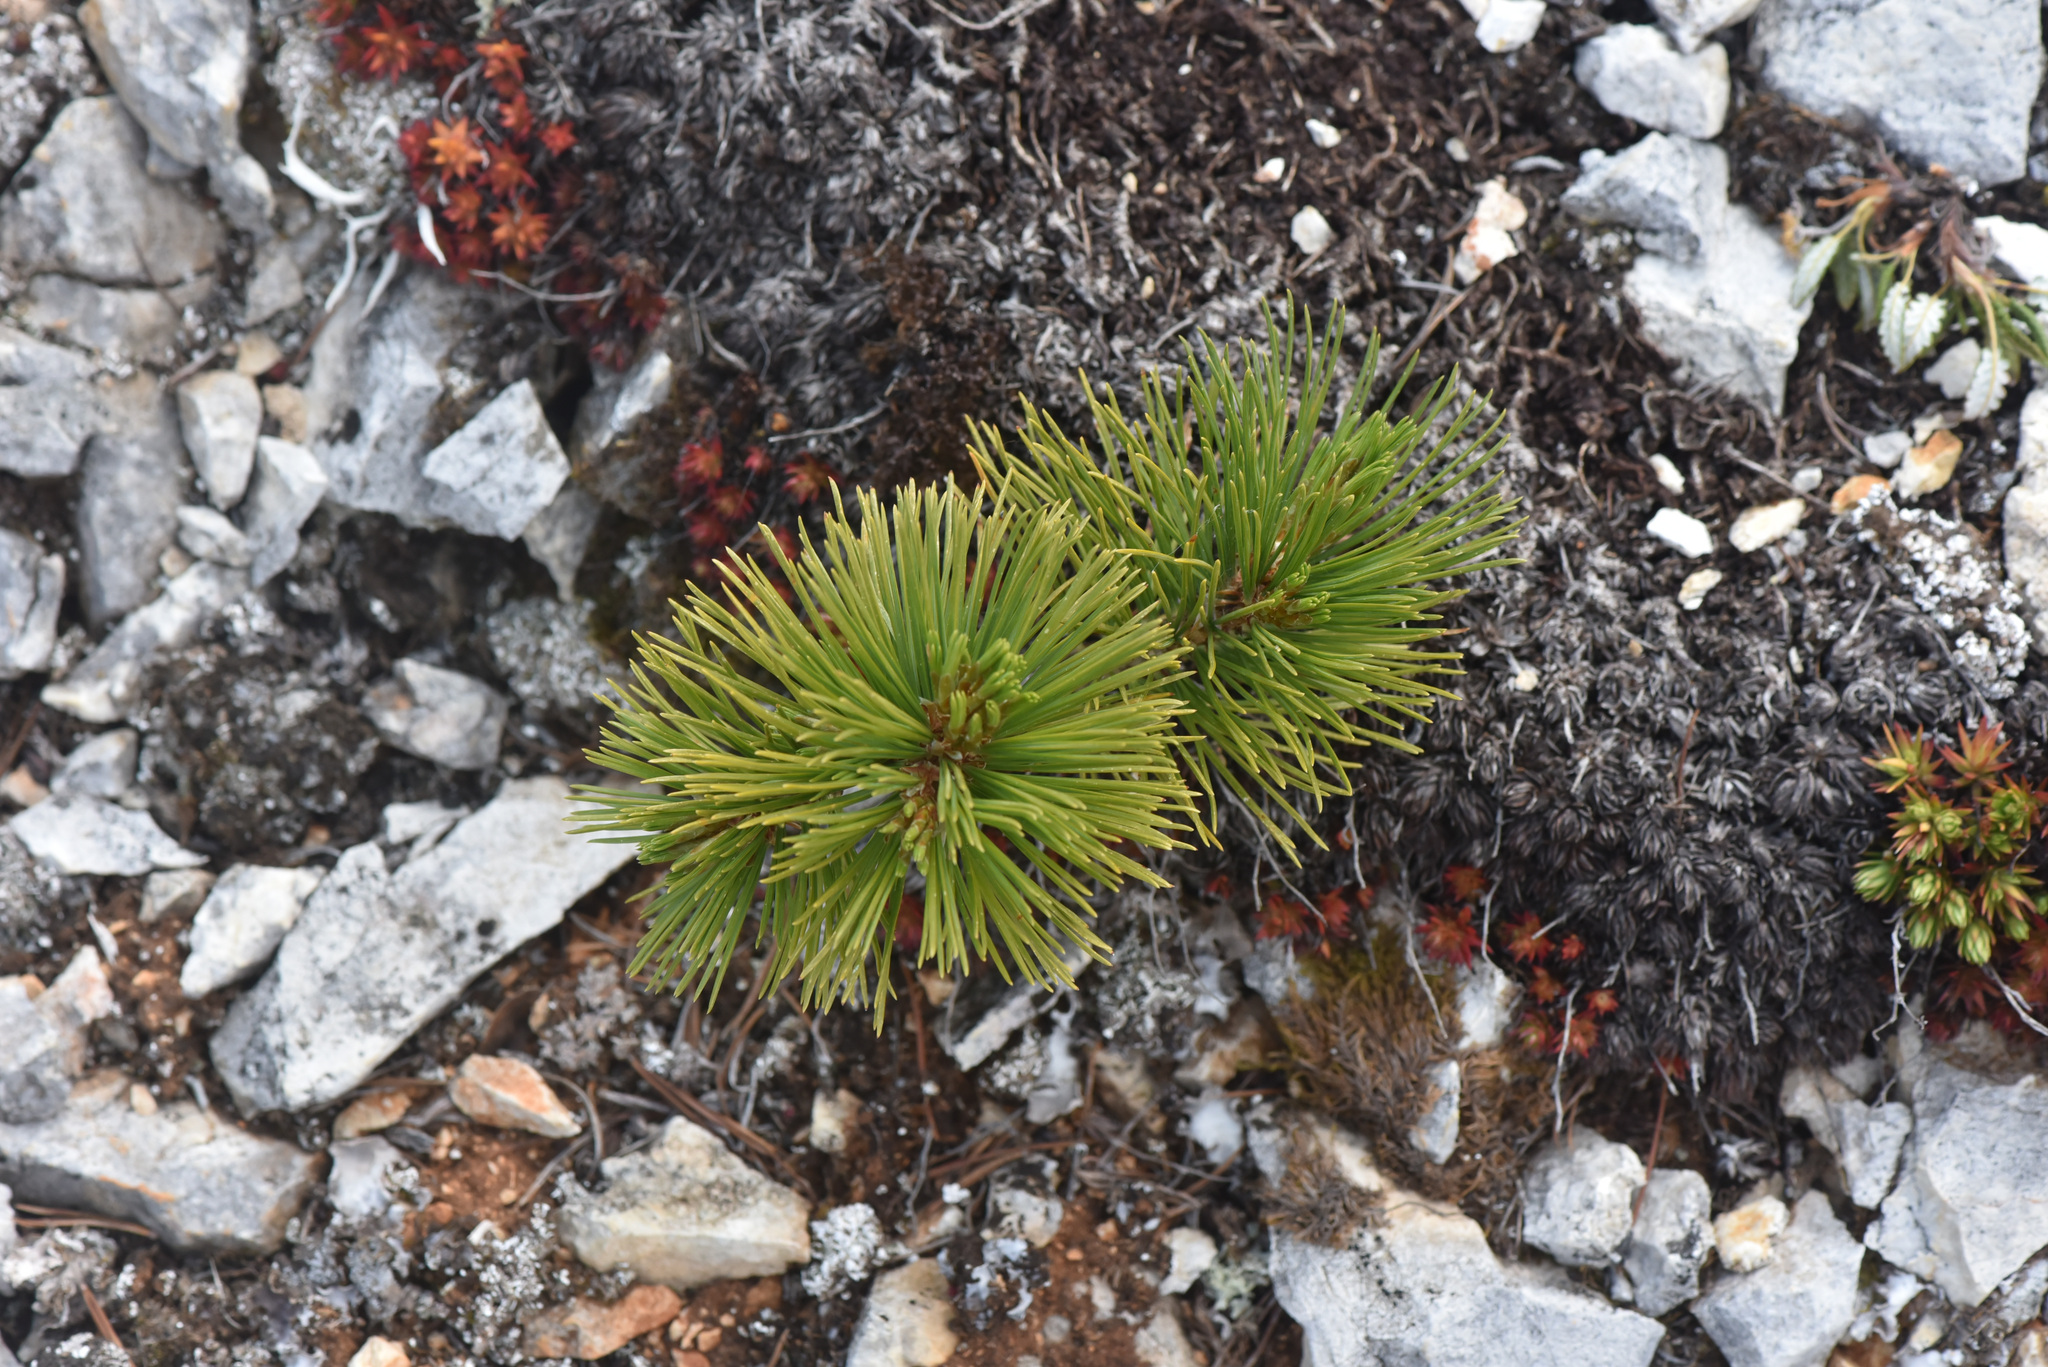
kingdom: Plantae
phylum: Tracheophyta
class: Pinopsida
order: Pinales
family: Pinaceae
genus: Pinus
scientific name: Pinus albicaulis
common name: Whitebark pine
